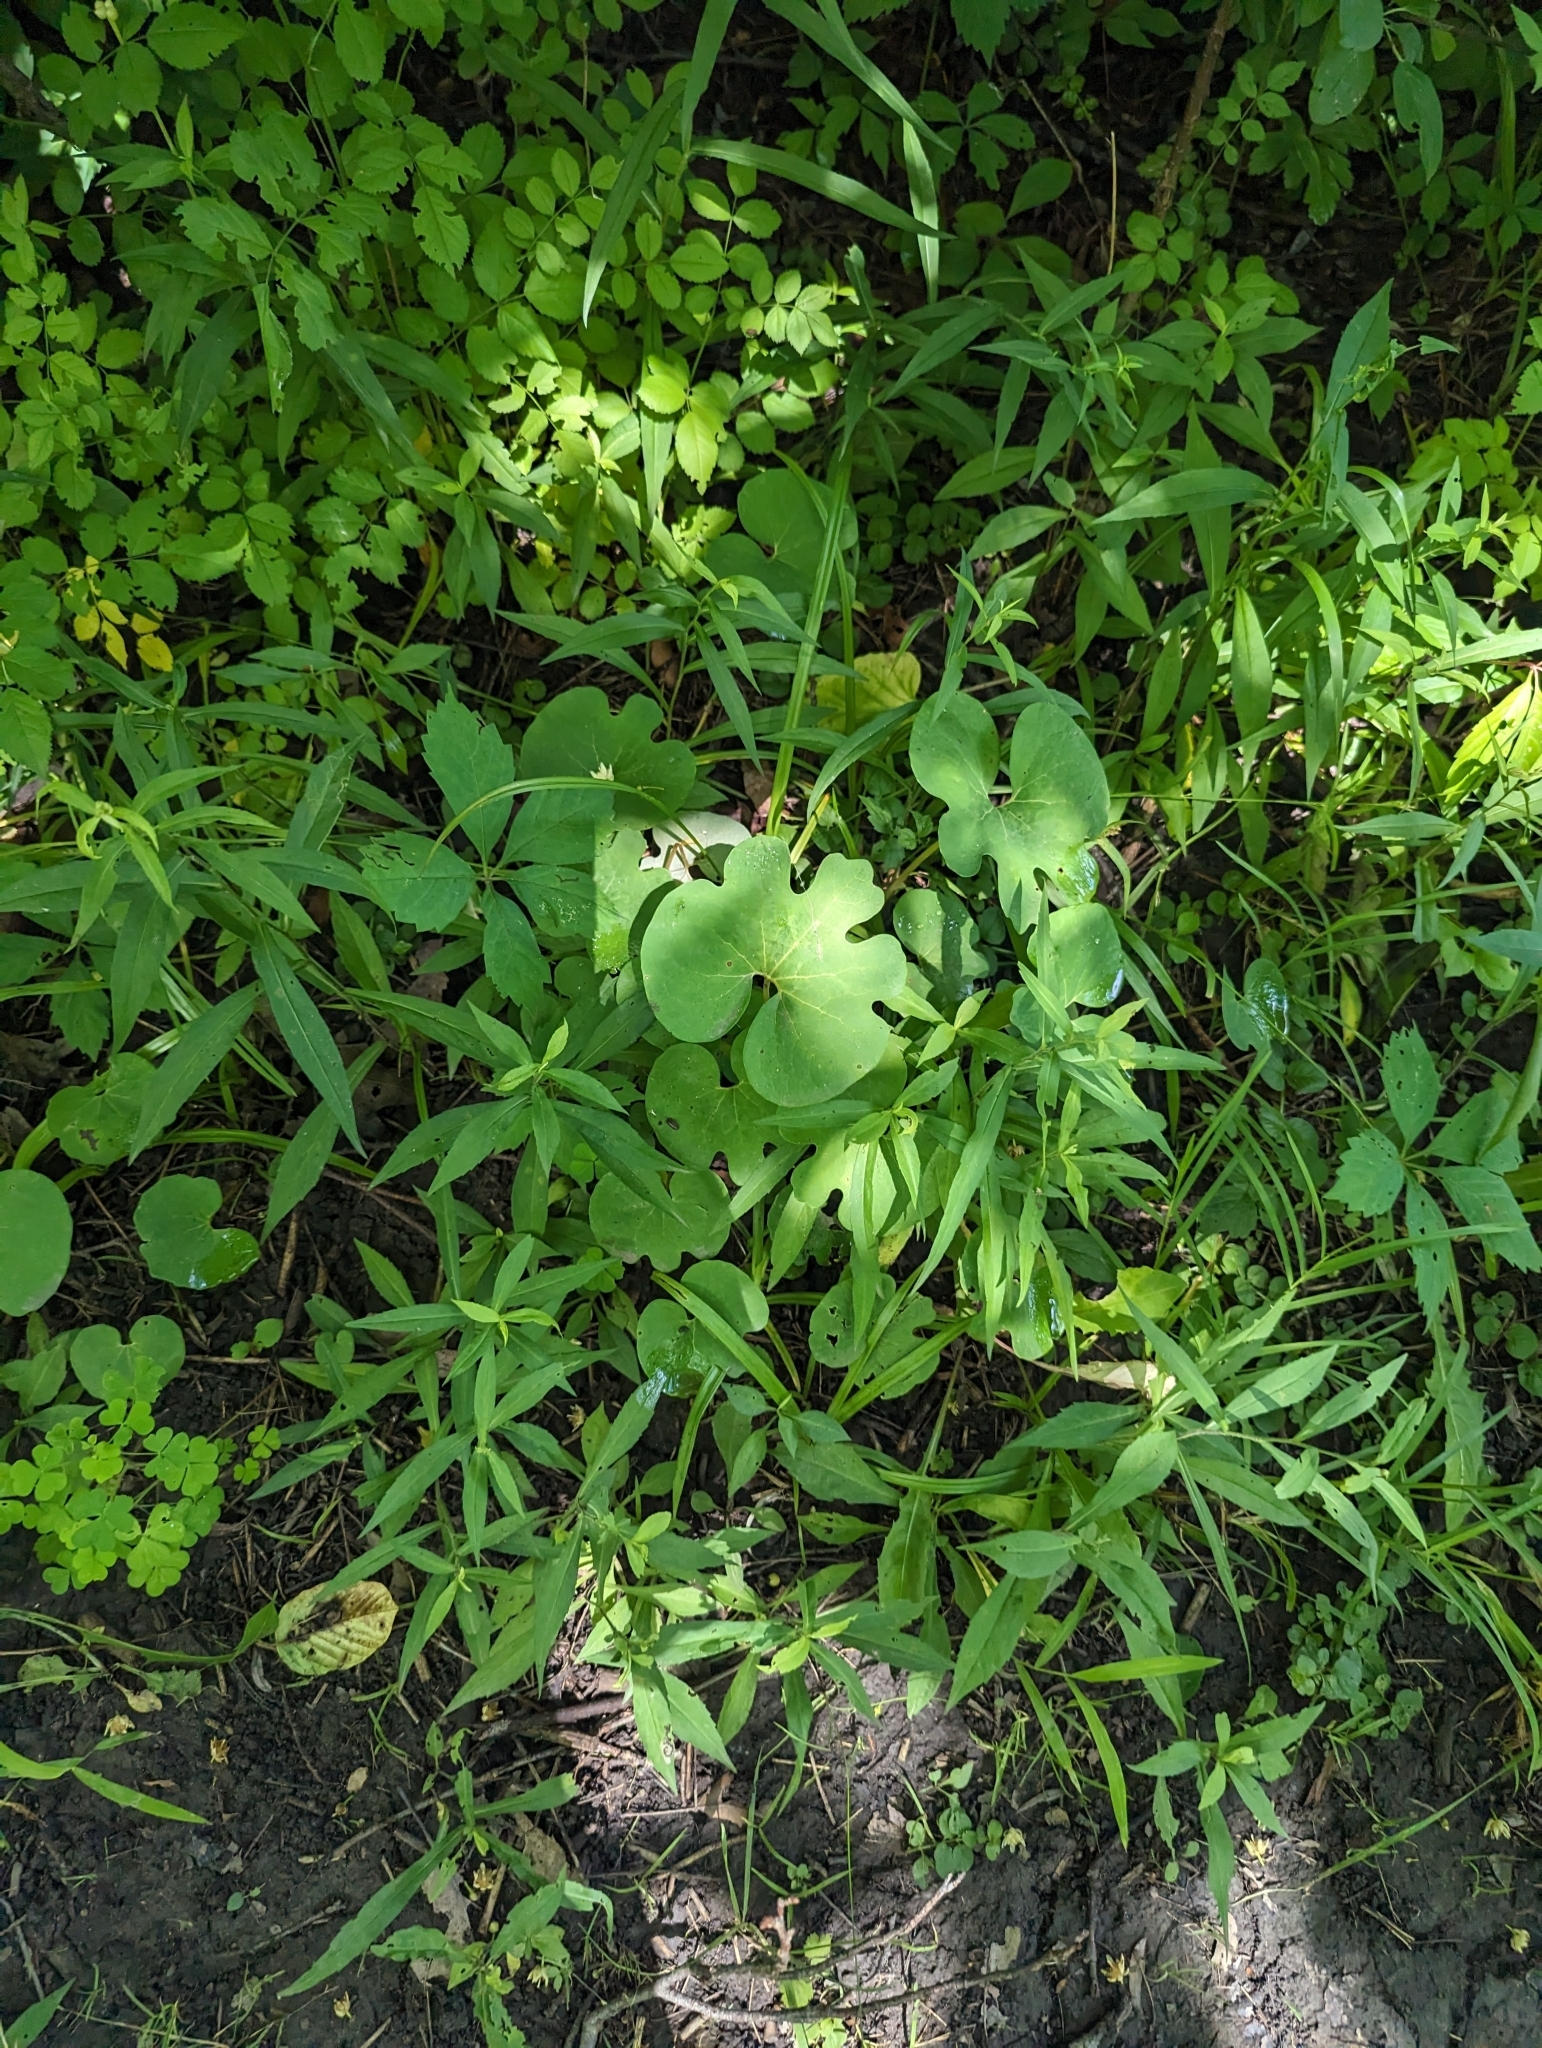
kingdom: Plantae
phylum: Tracheophyta
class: Magnoliopsida
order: Ranunculales
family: Papaveraceae
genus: Sanguinaria
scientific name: Sanguinaria canadensis
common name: Bloodroot
